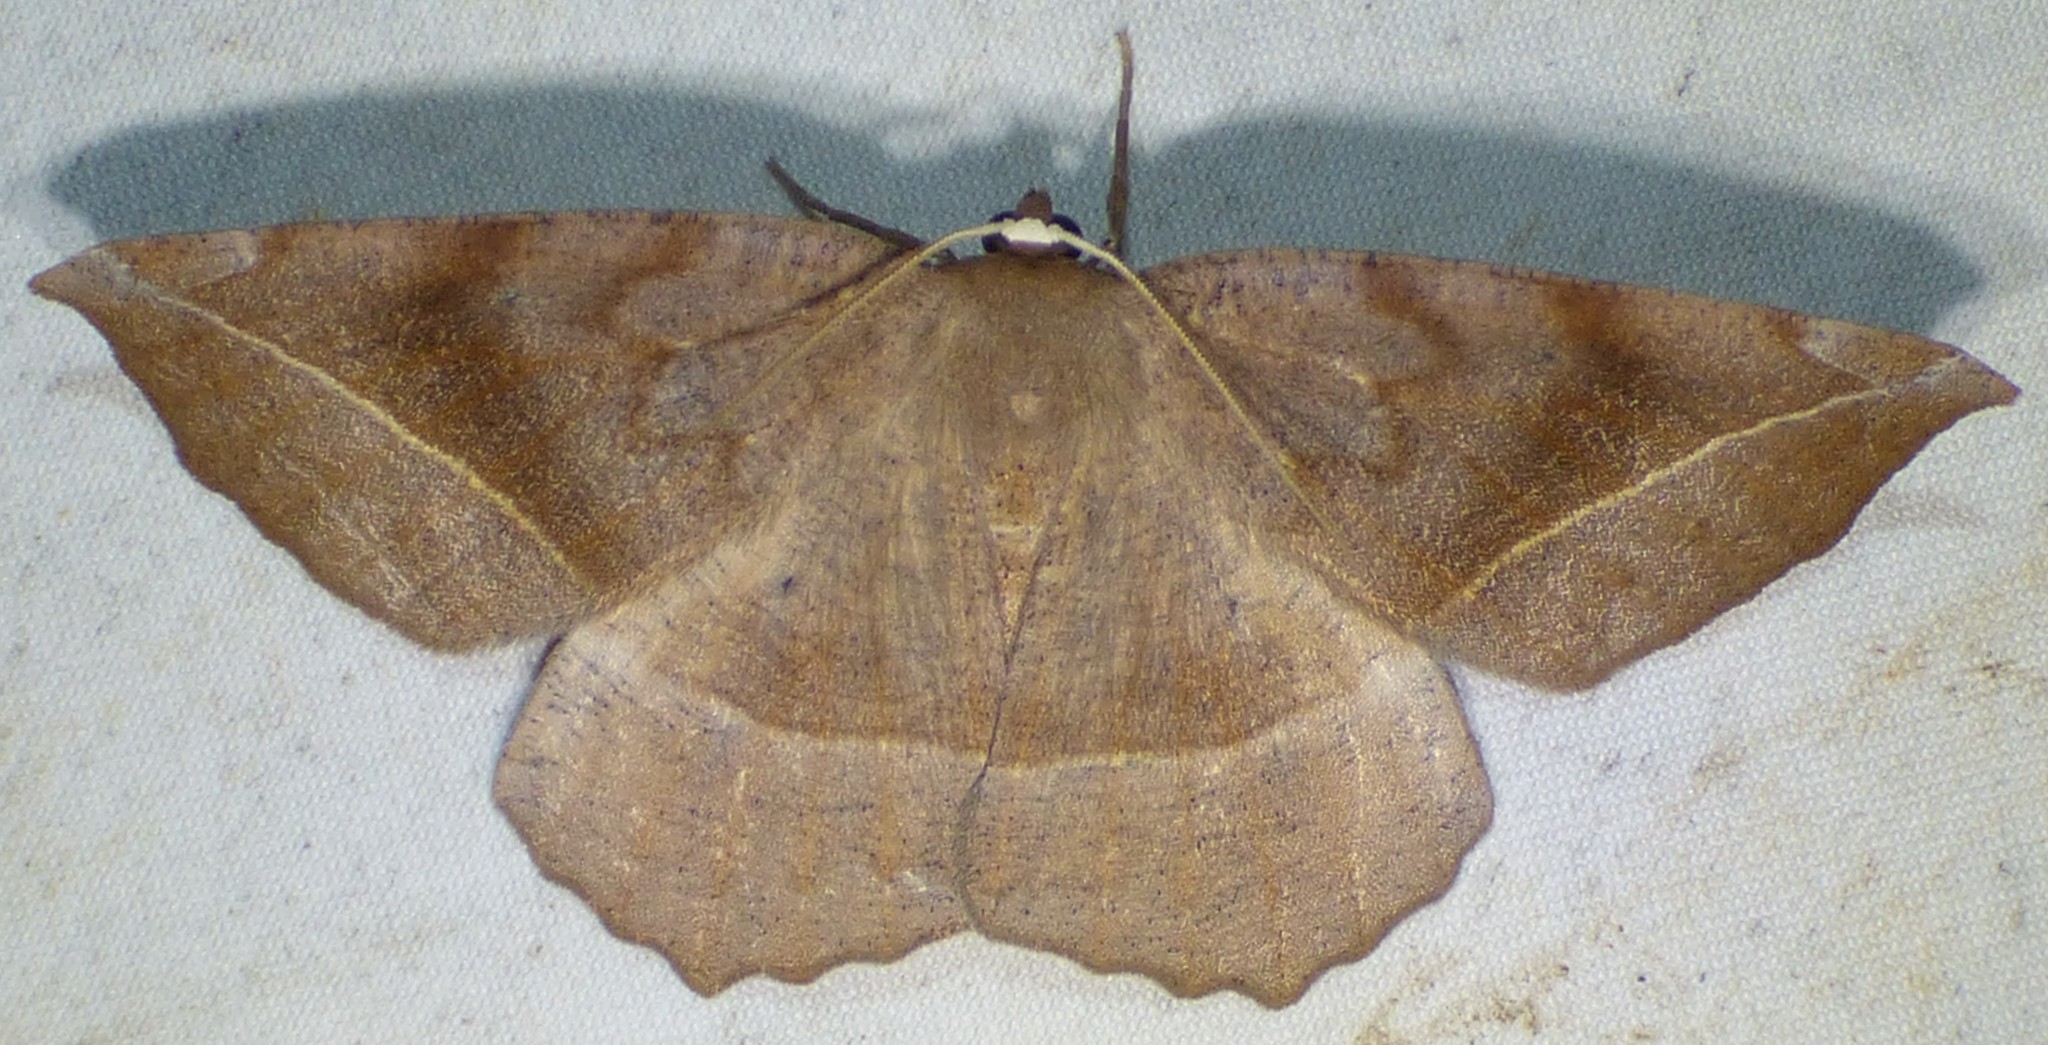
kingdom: Animalia
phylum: Arthropoda
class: Insecta
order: Lepidoptera
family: Geometridae
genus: Eutrapela
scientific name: Eutrapela clemataria
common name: Curved-toothed geometer
